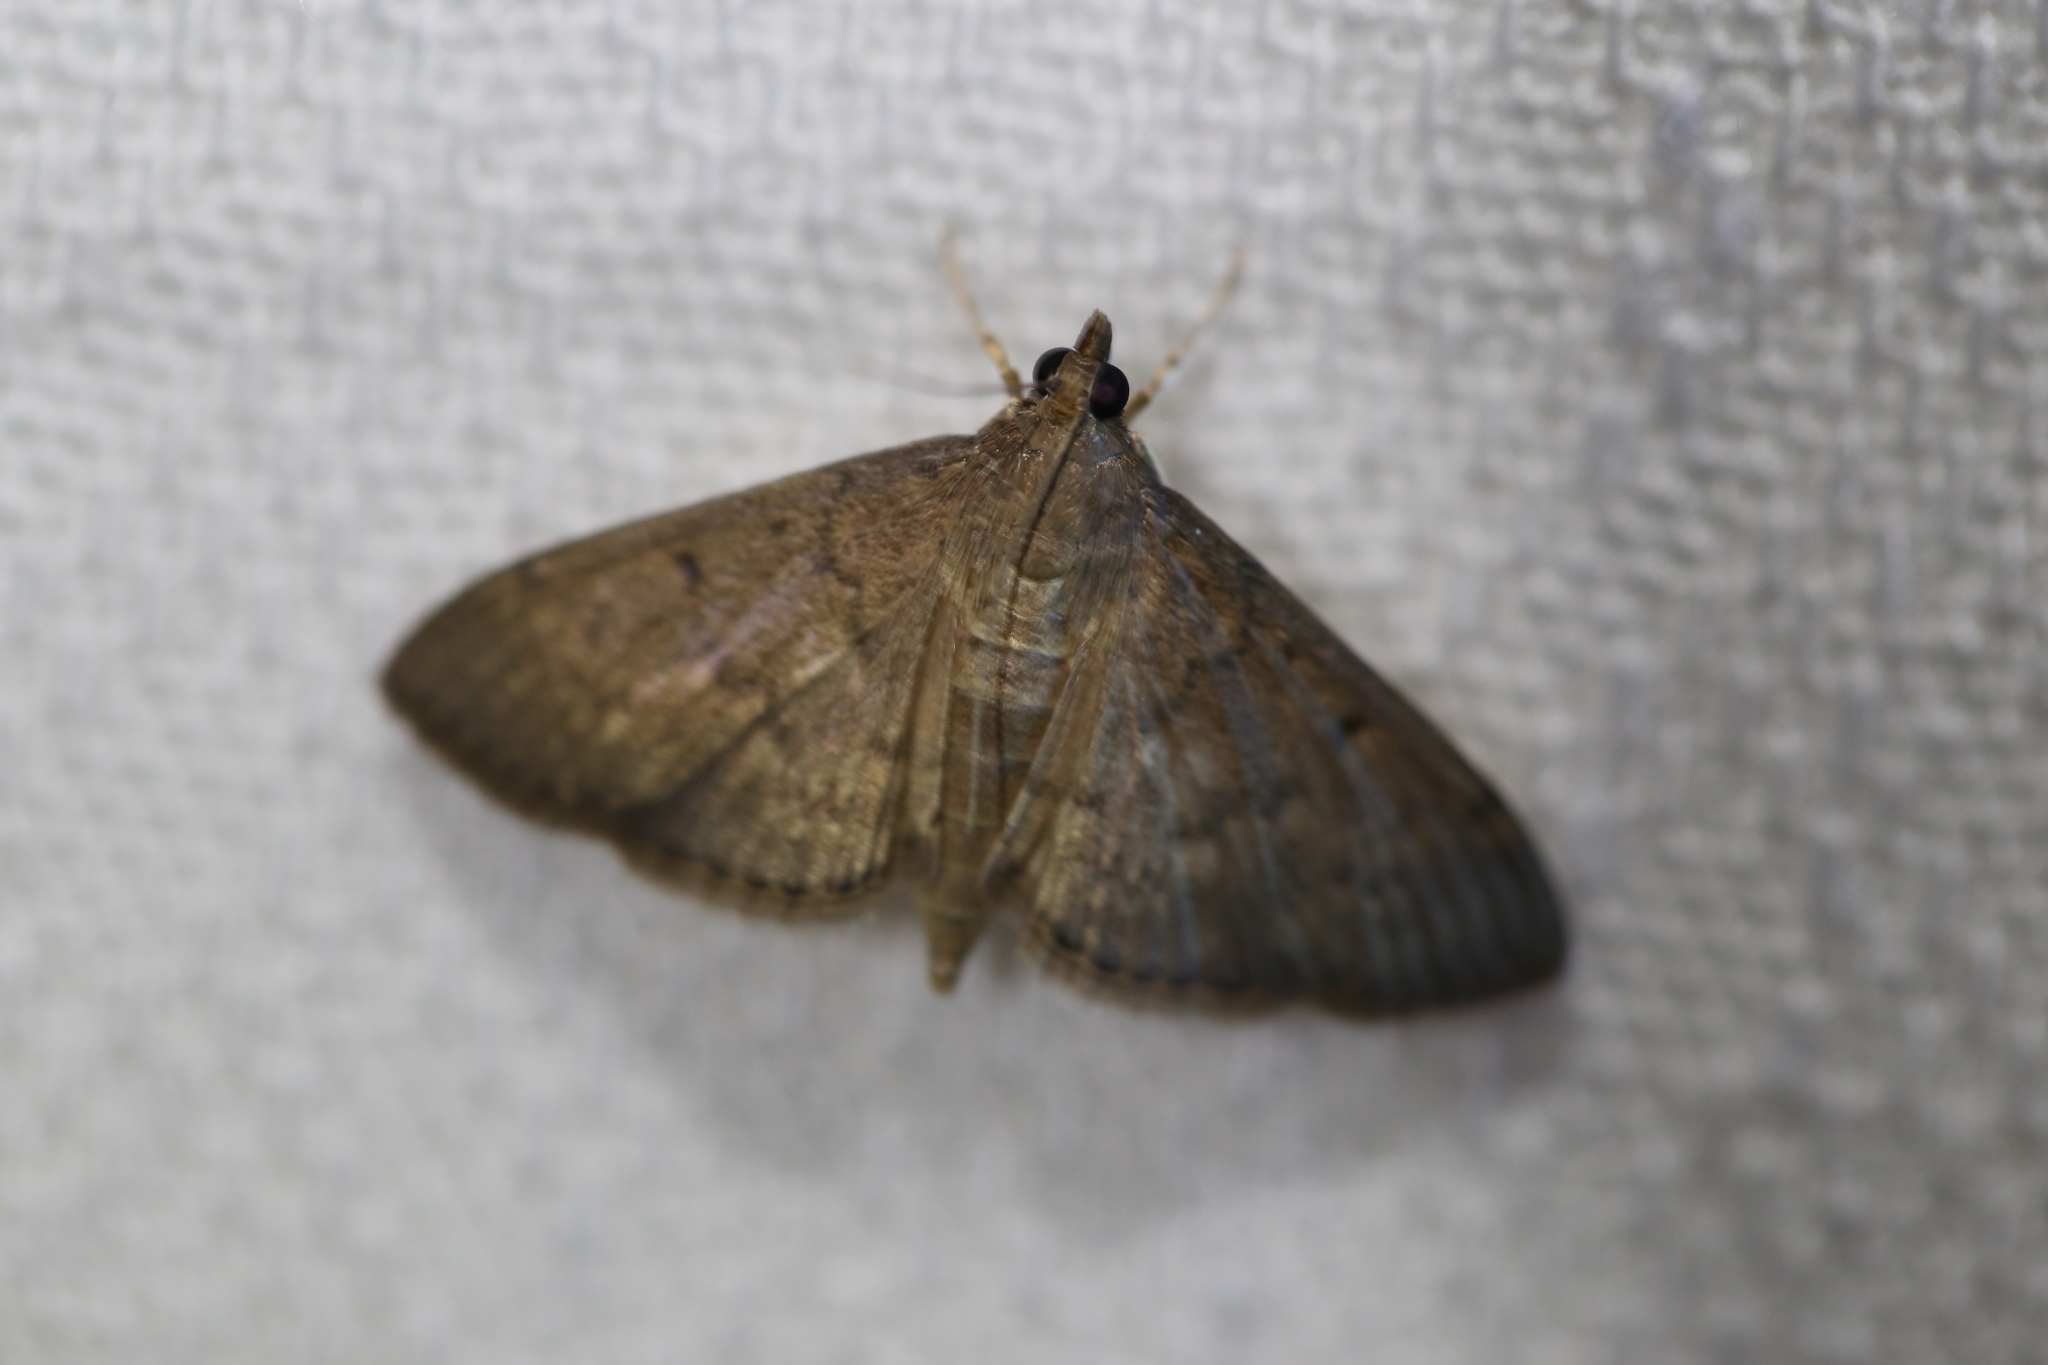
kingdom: Animalia
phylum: Arthropoda
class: Insecta
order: Lepidoptera
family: Crambidae
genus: Herpetogramma
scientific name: Herpetogramma licarsisalis
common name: Grass webworm
